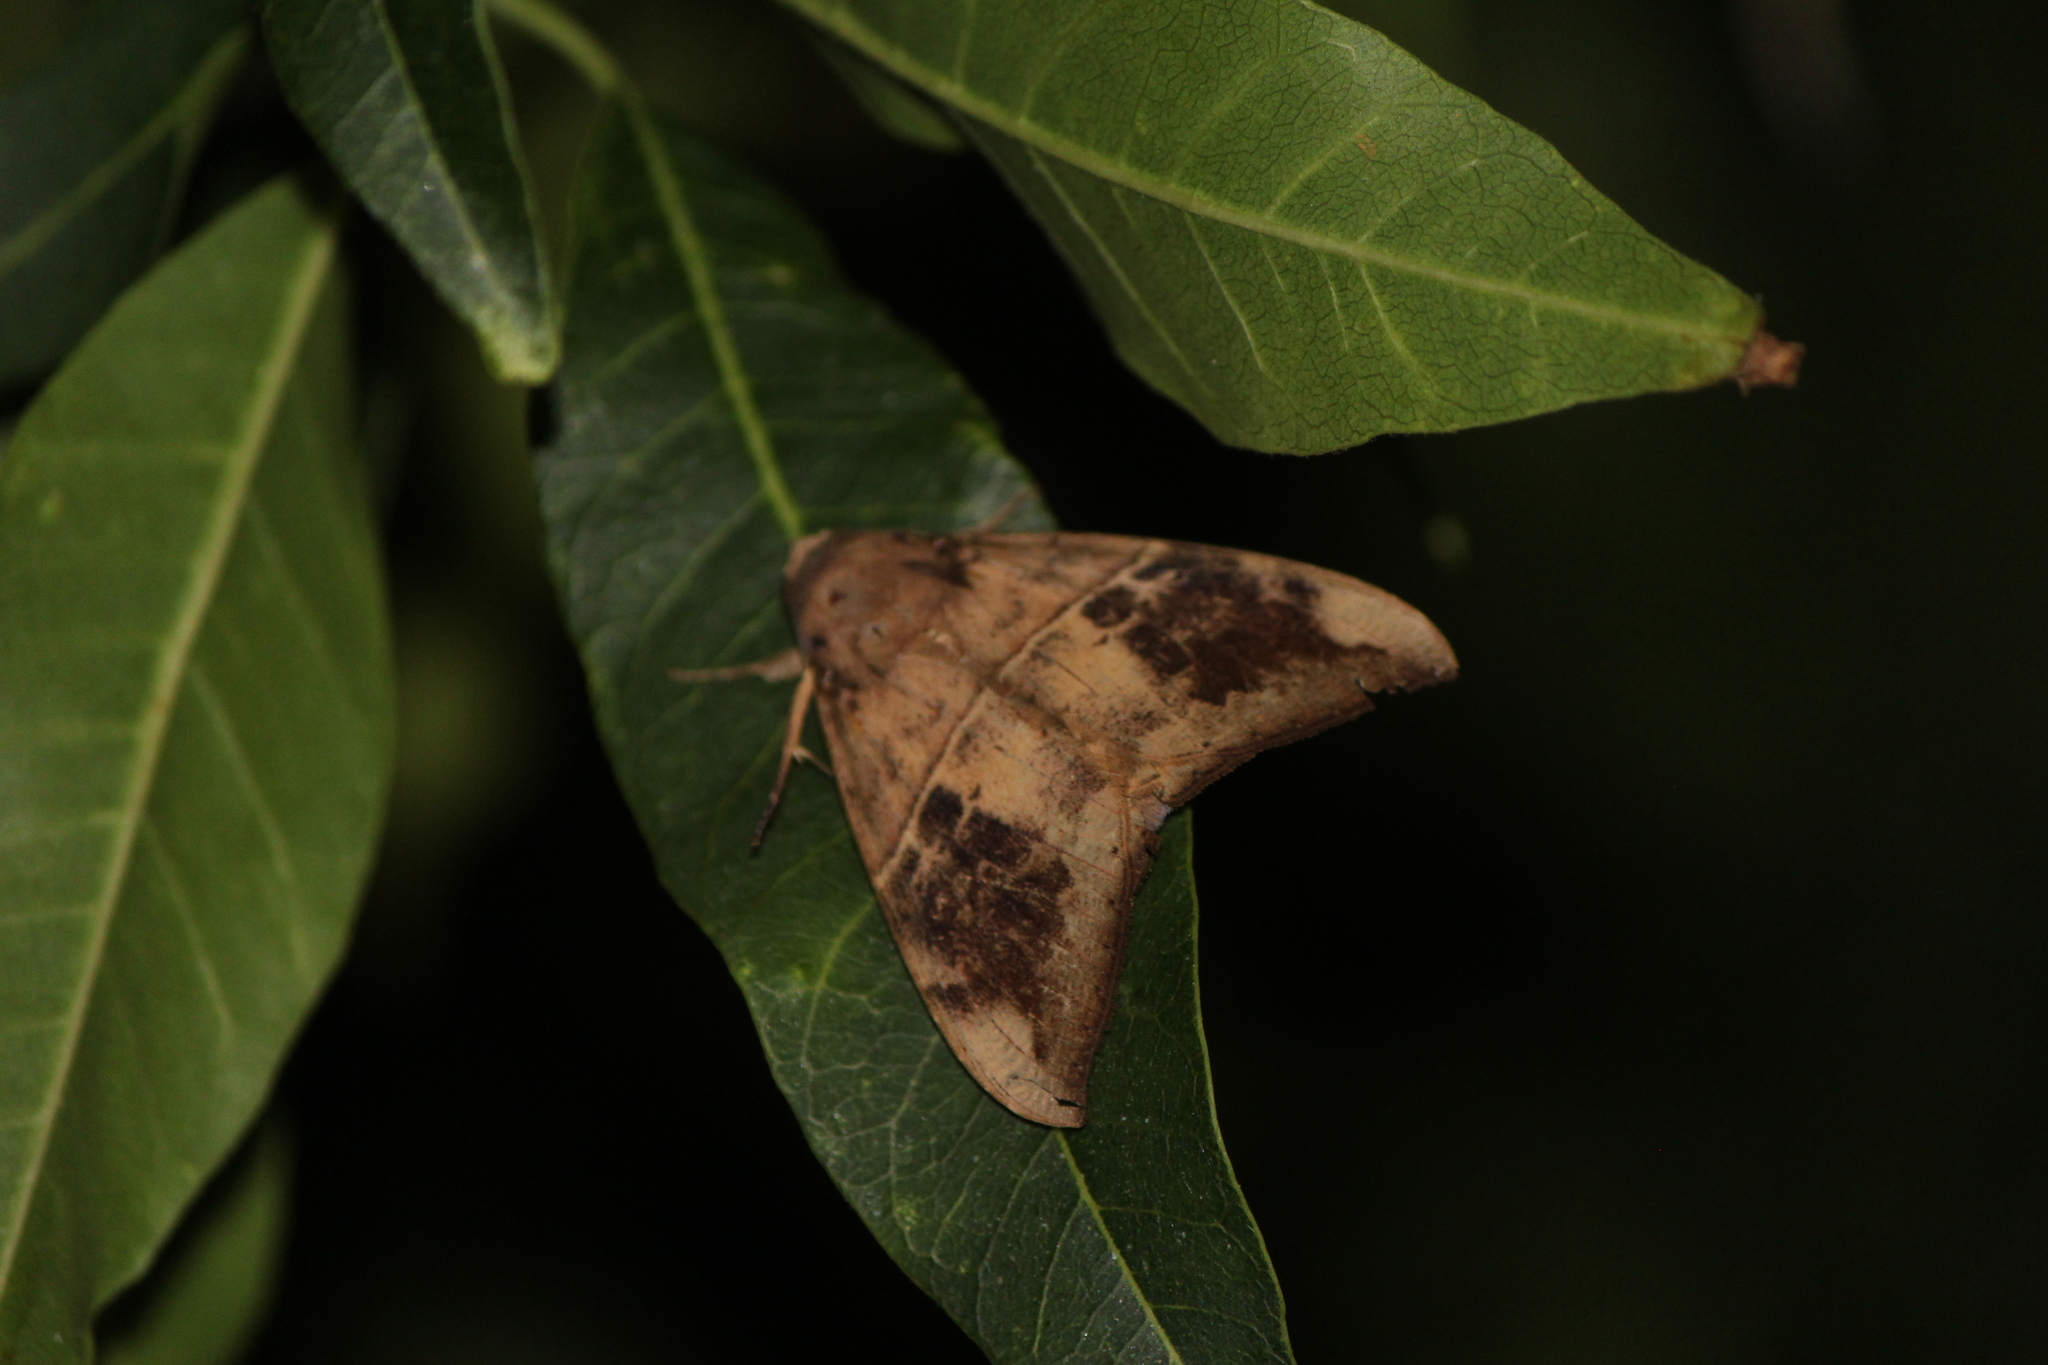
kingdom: Animalia
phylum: Arthropoda
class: Insecta
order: Lepidoptera
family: Erebidae
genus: Ophisma
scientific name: Ophisma tropicalis
